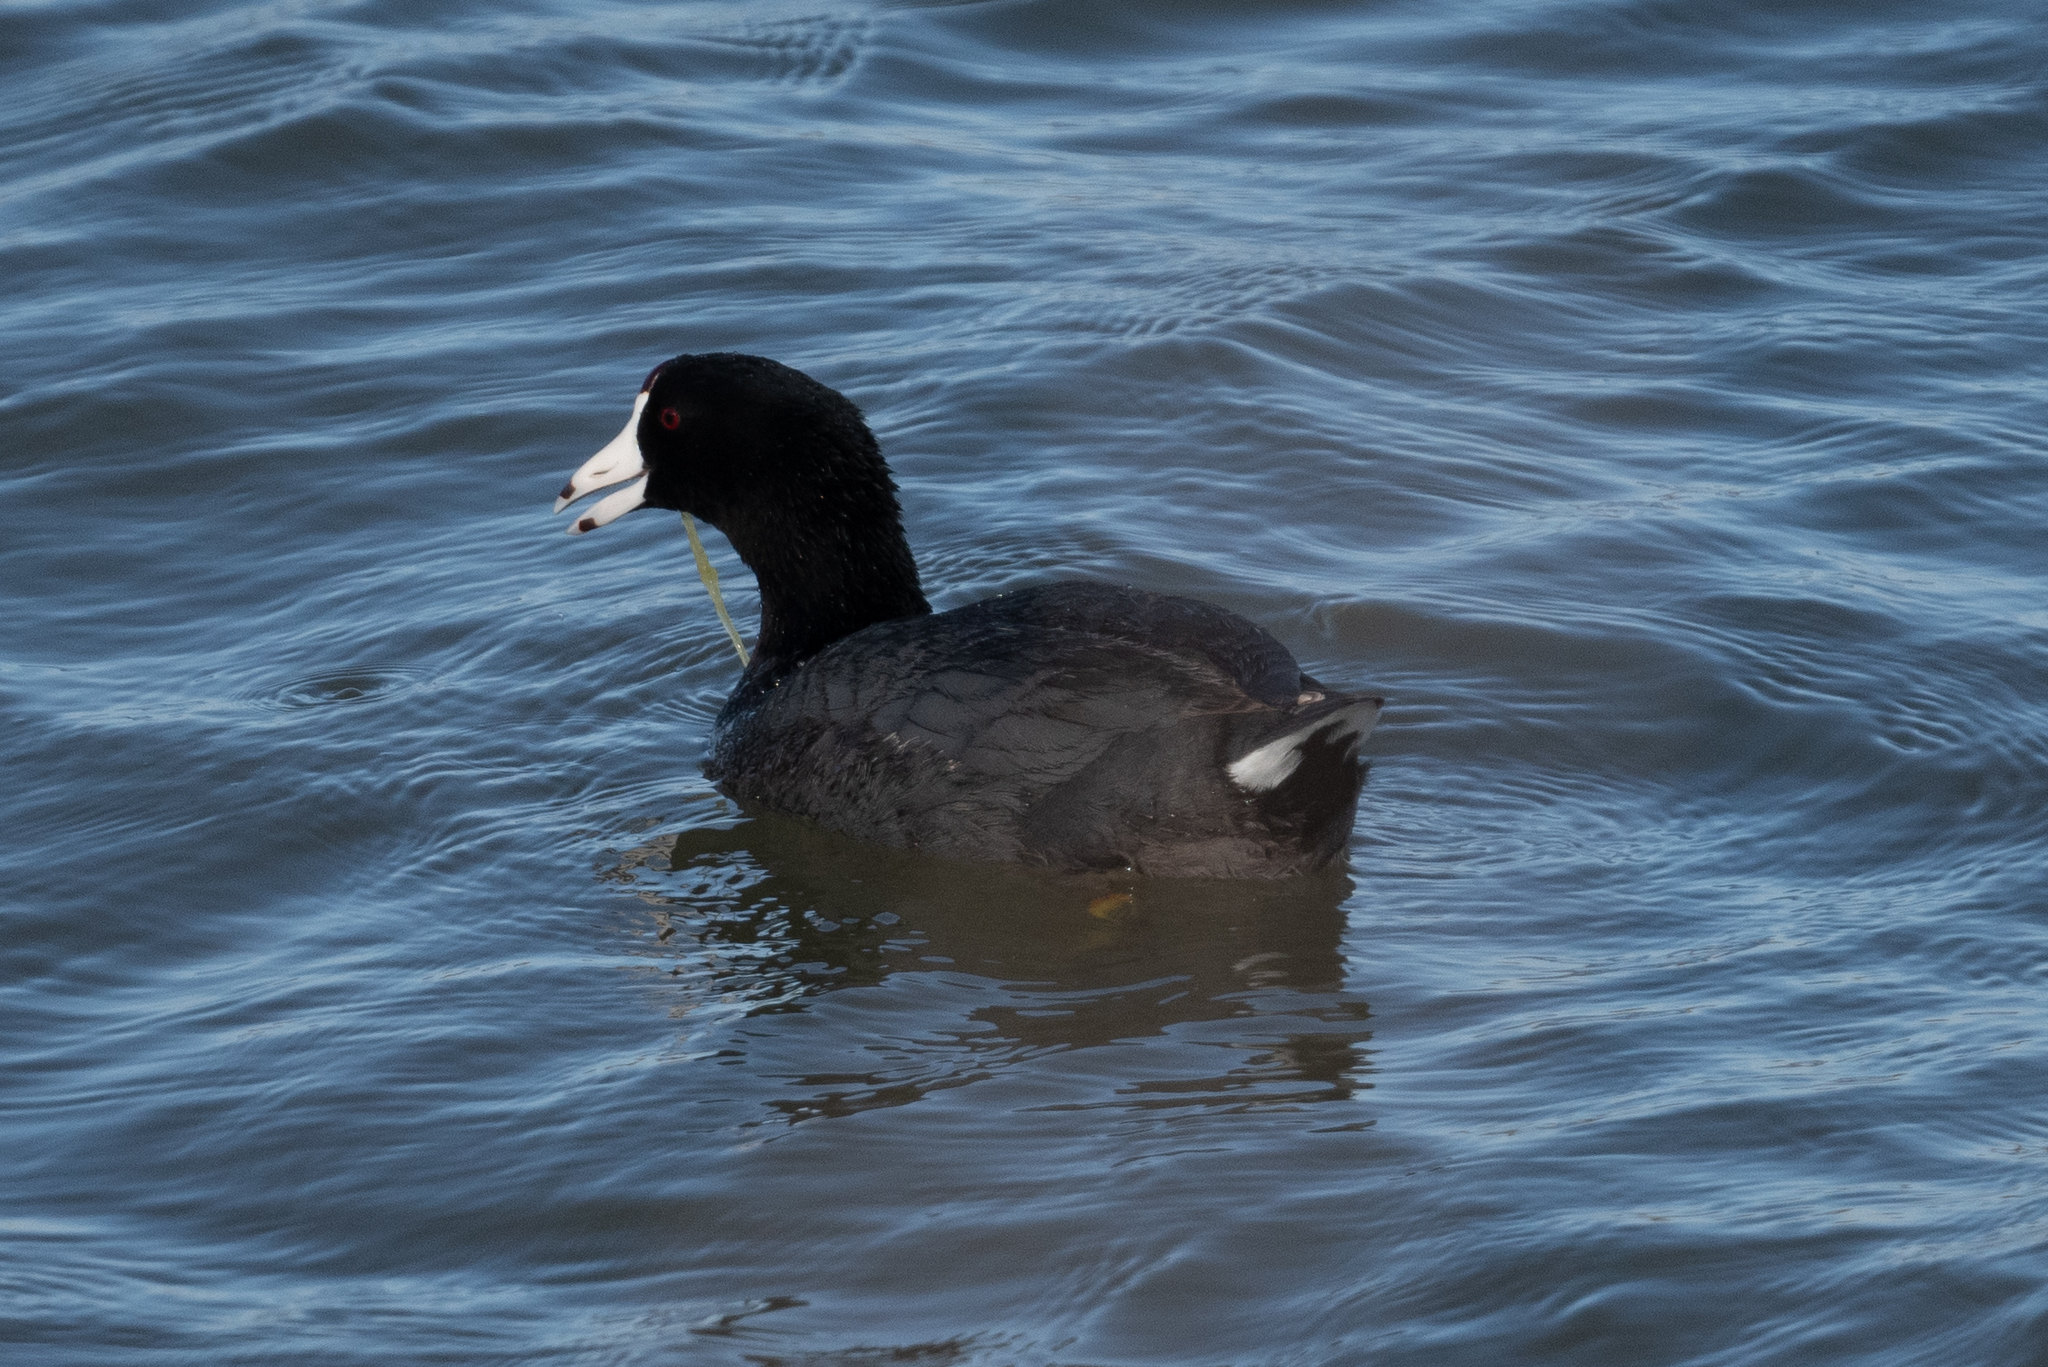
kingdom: Animalia
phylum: Chordata
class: Aves
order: Gruiformes
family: Rallidae
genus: Fulica
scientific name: Fulica americana
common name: American coot
